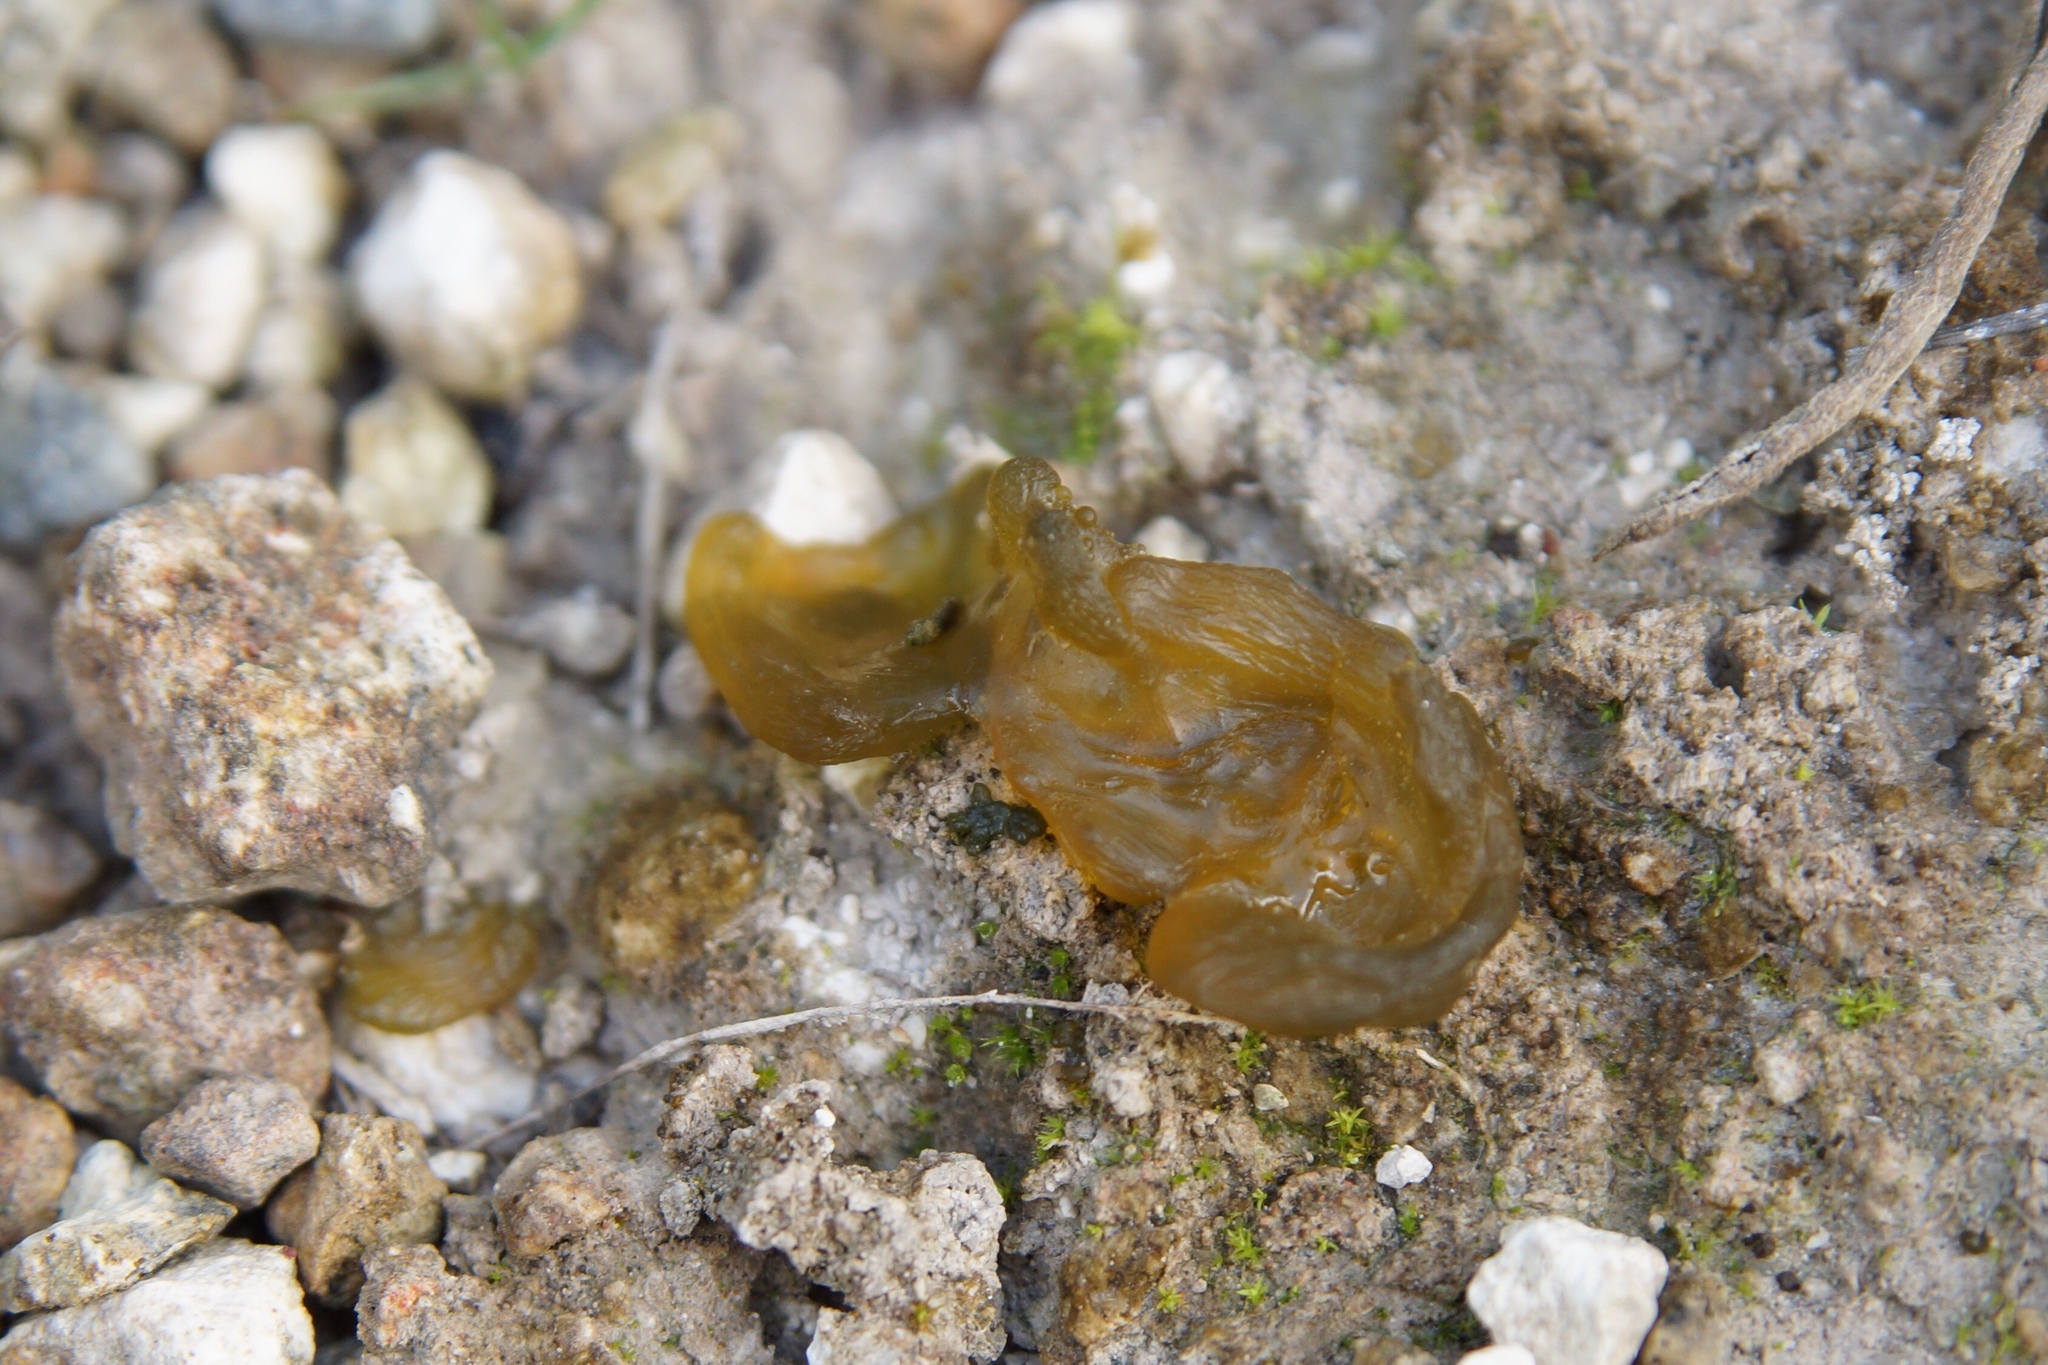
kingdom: Bacteria
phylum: Cyanobacteria
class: Cyanobacteriia
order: Cyanobacteriales
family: Nostocaceae
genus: Nostoc
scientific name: Nostoc commune
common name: Star jelly
